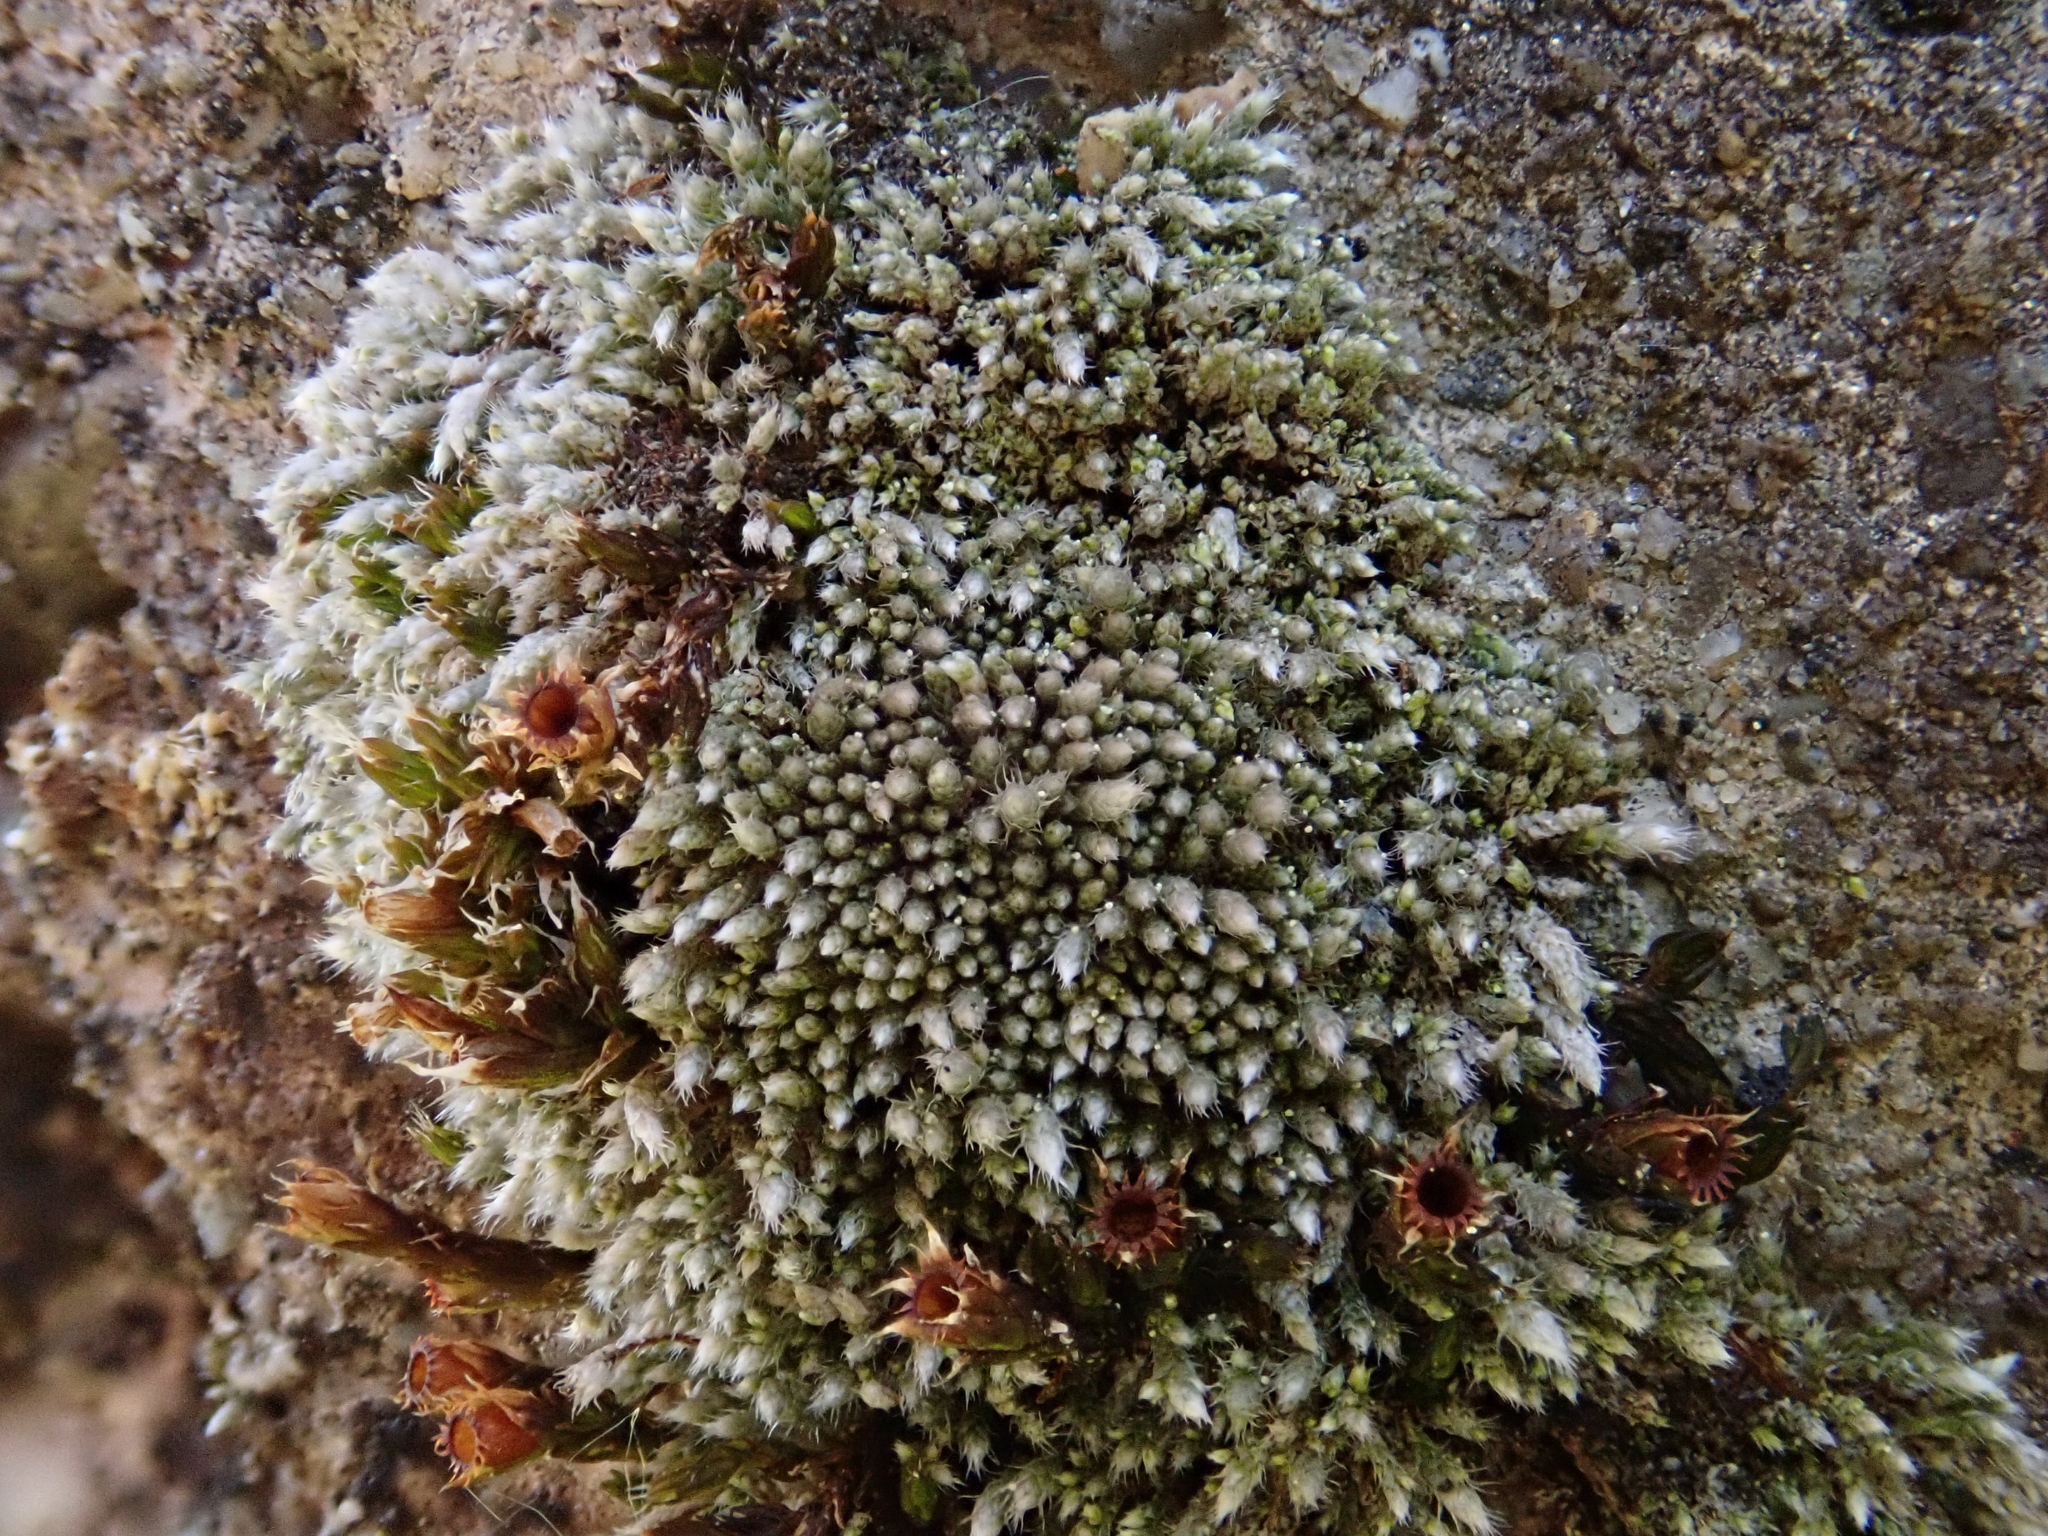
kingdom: Plantae
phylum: Bryophyta
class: Bryopsida
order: Bryales
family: Bryaceae
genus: Bryum
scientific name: Bryum argenteum
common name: Silver-moss
